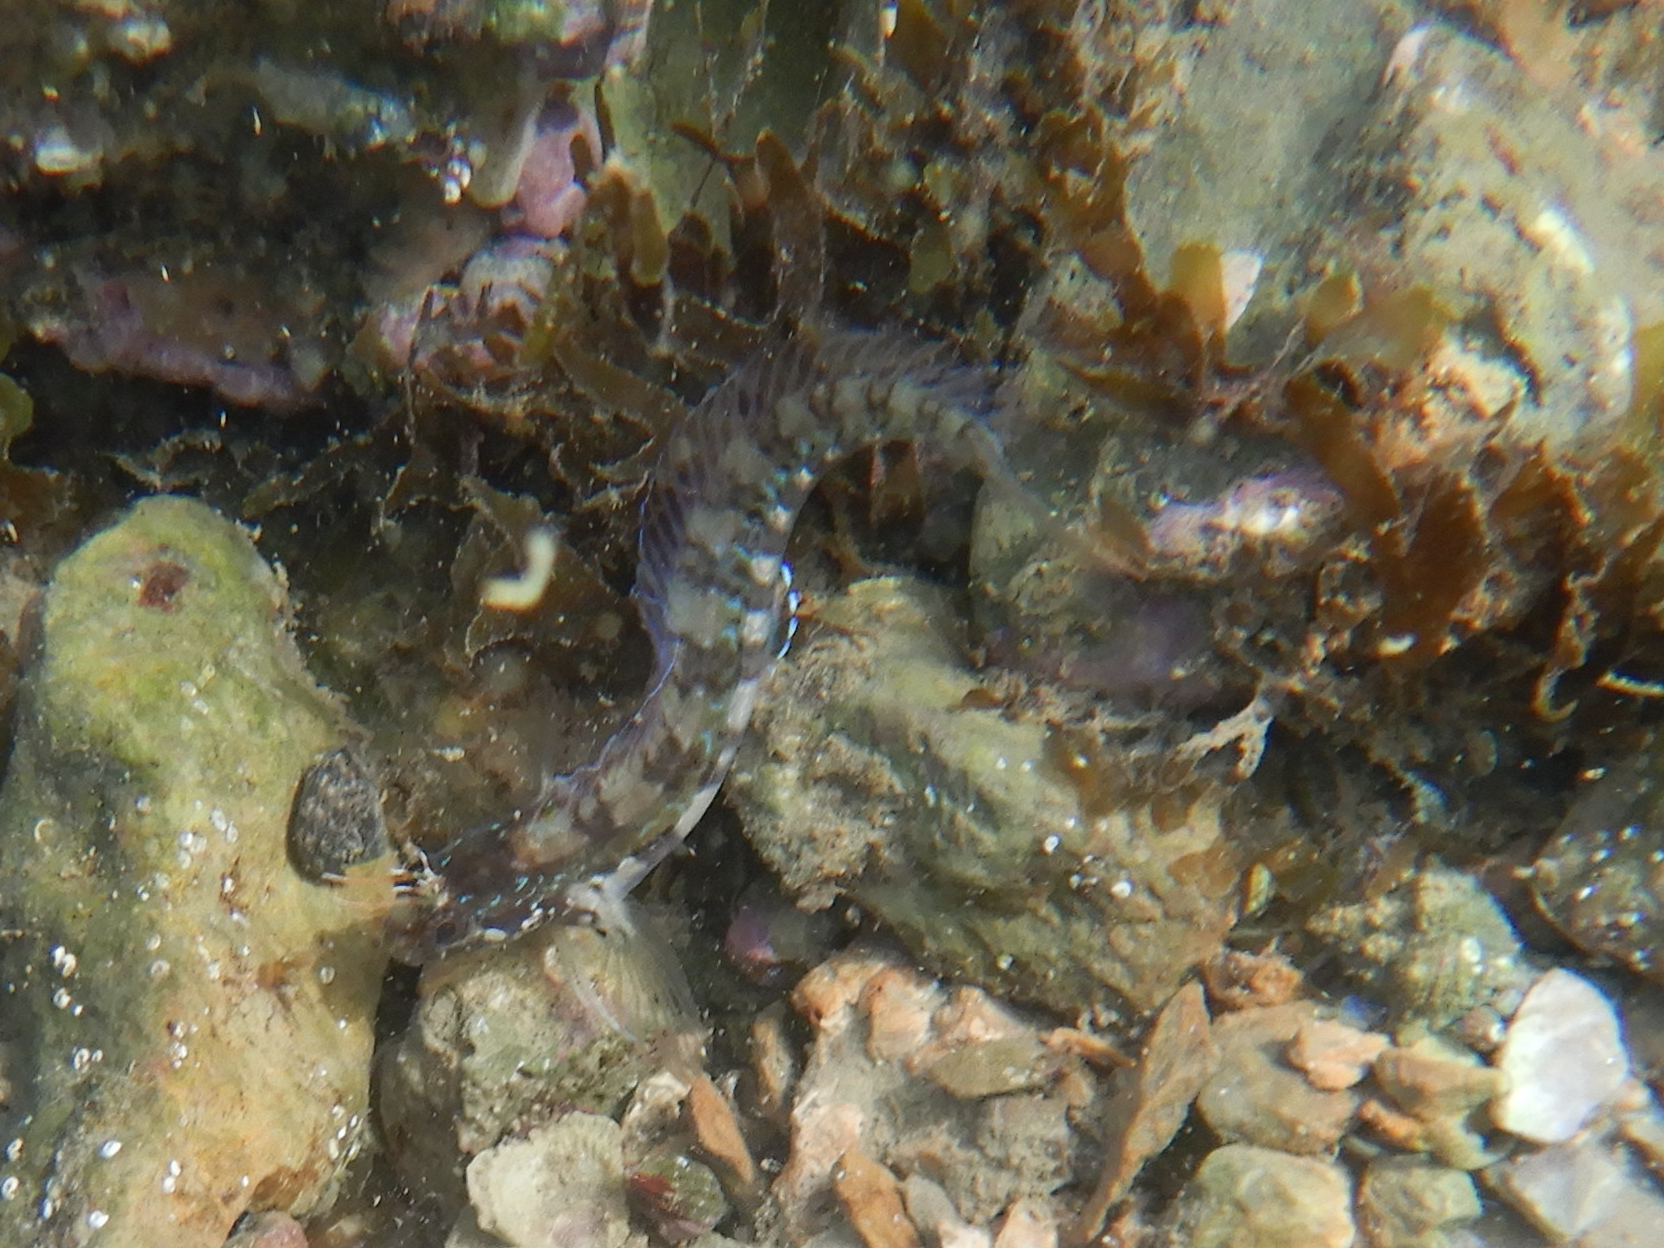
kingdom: Animalia
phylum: Chordata
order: Perciformes
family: Blenniidae
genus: Parablennius
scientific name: Parablennius rouxi
